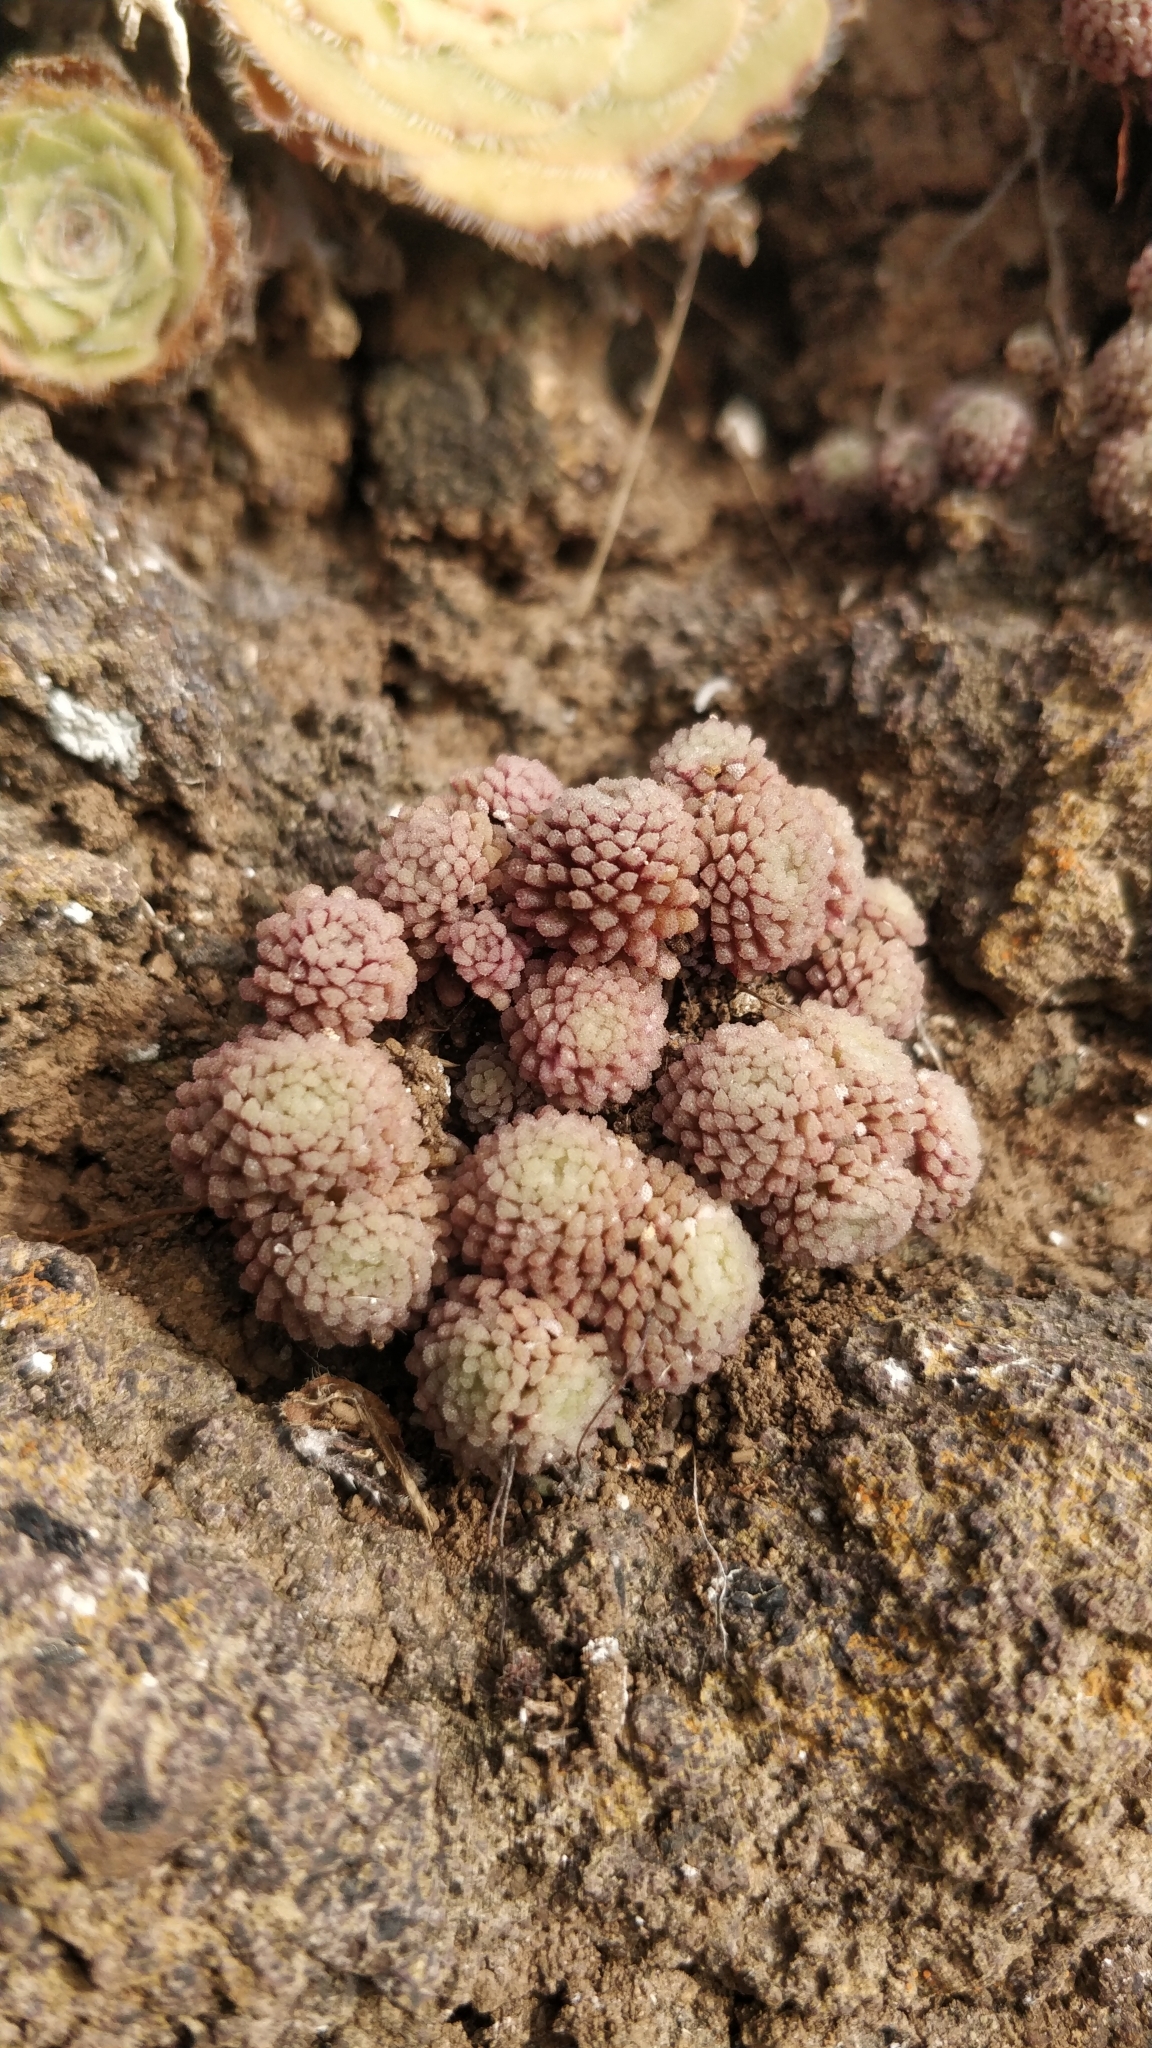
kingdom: Plantae
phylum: Tracheophyta
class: Magnoliopsida
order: Saxifragales
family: Crassulaceae
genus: Monanthes
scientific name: Monanthes polyphylla
